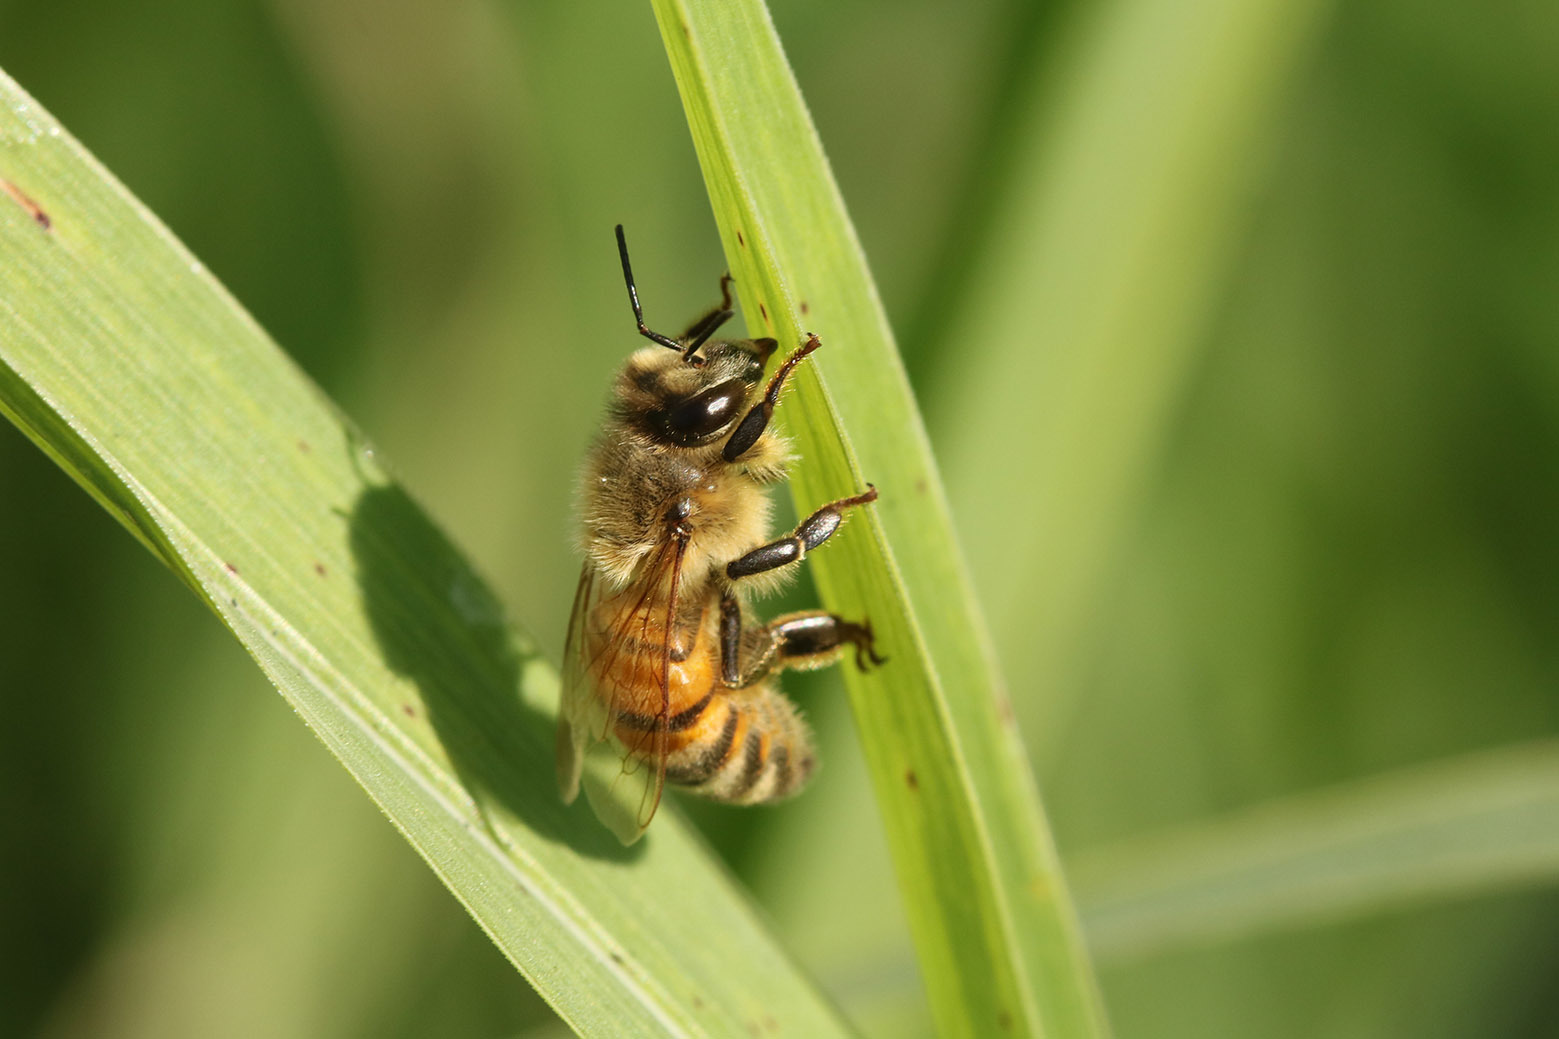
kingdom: Animalia
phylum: Arthropoda
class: Insecta
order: Hymenoptera
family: Apidae
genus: Apis
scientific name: Apis mellifera
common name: Honey bee
